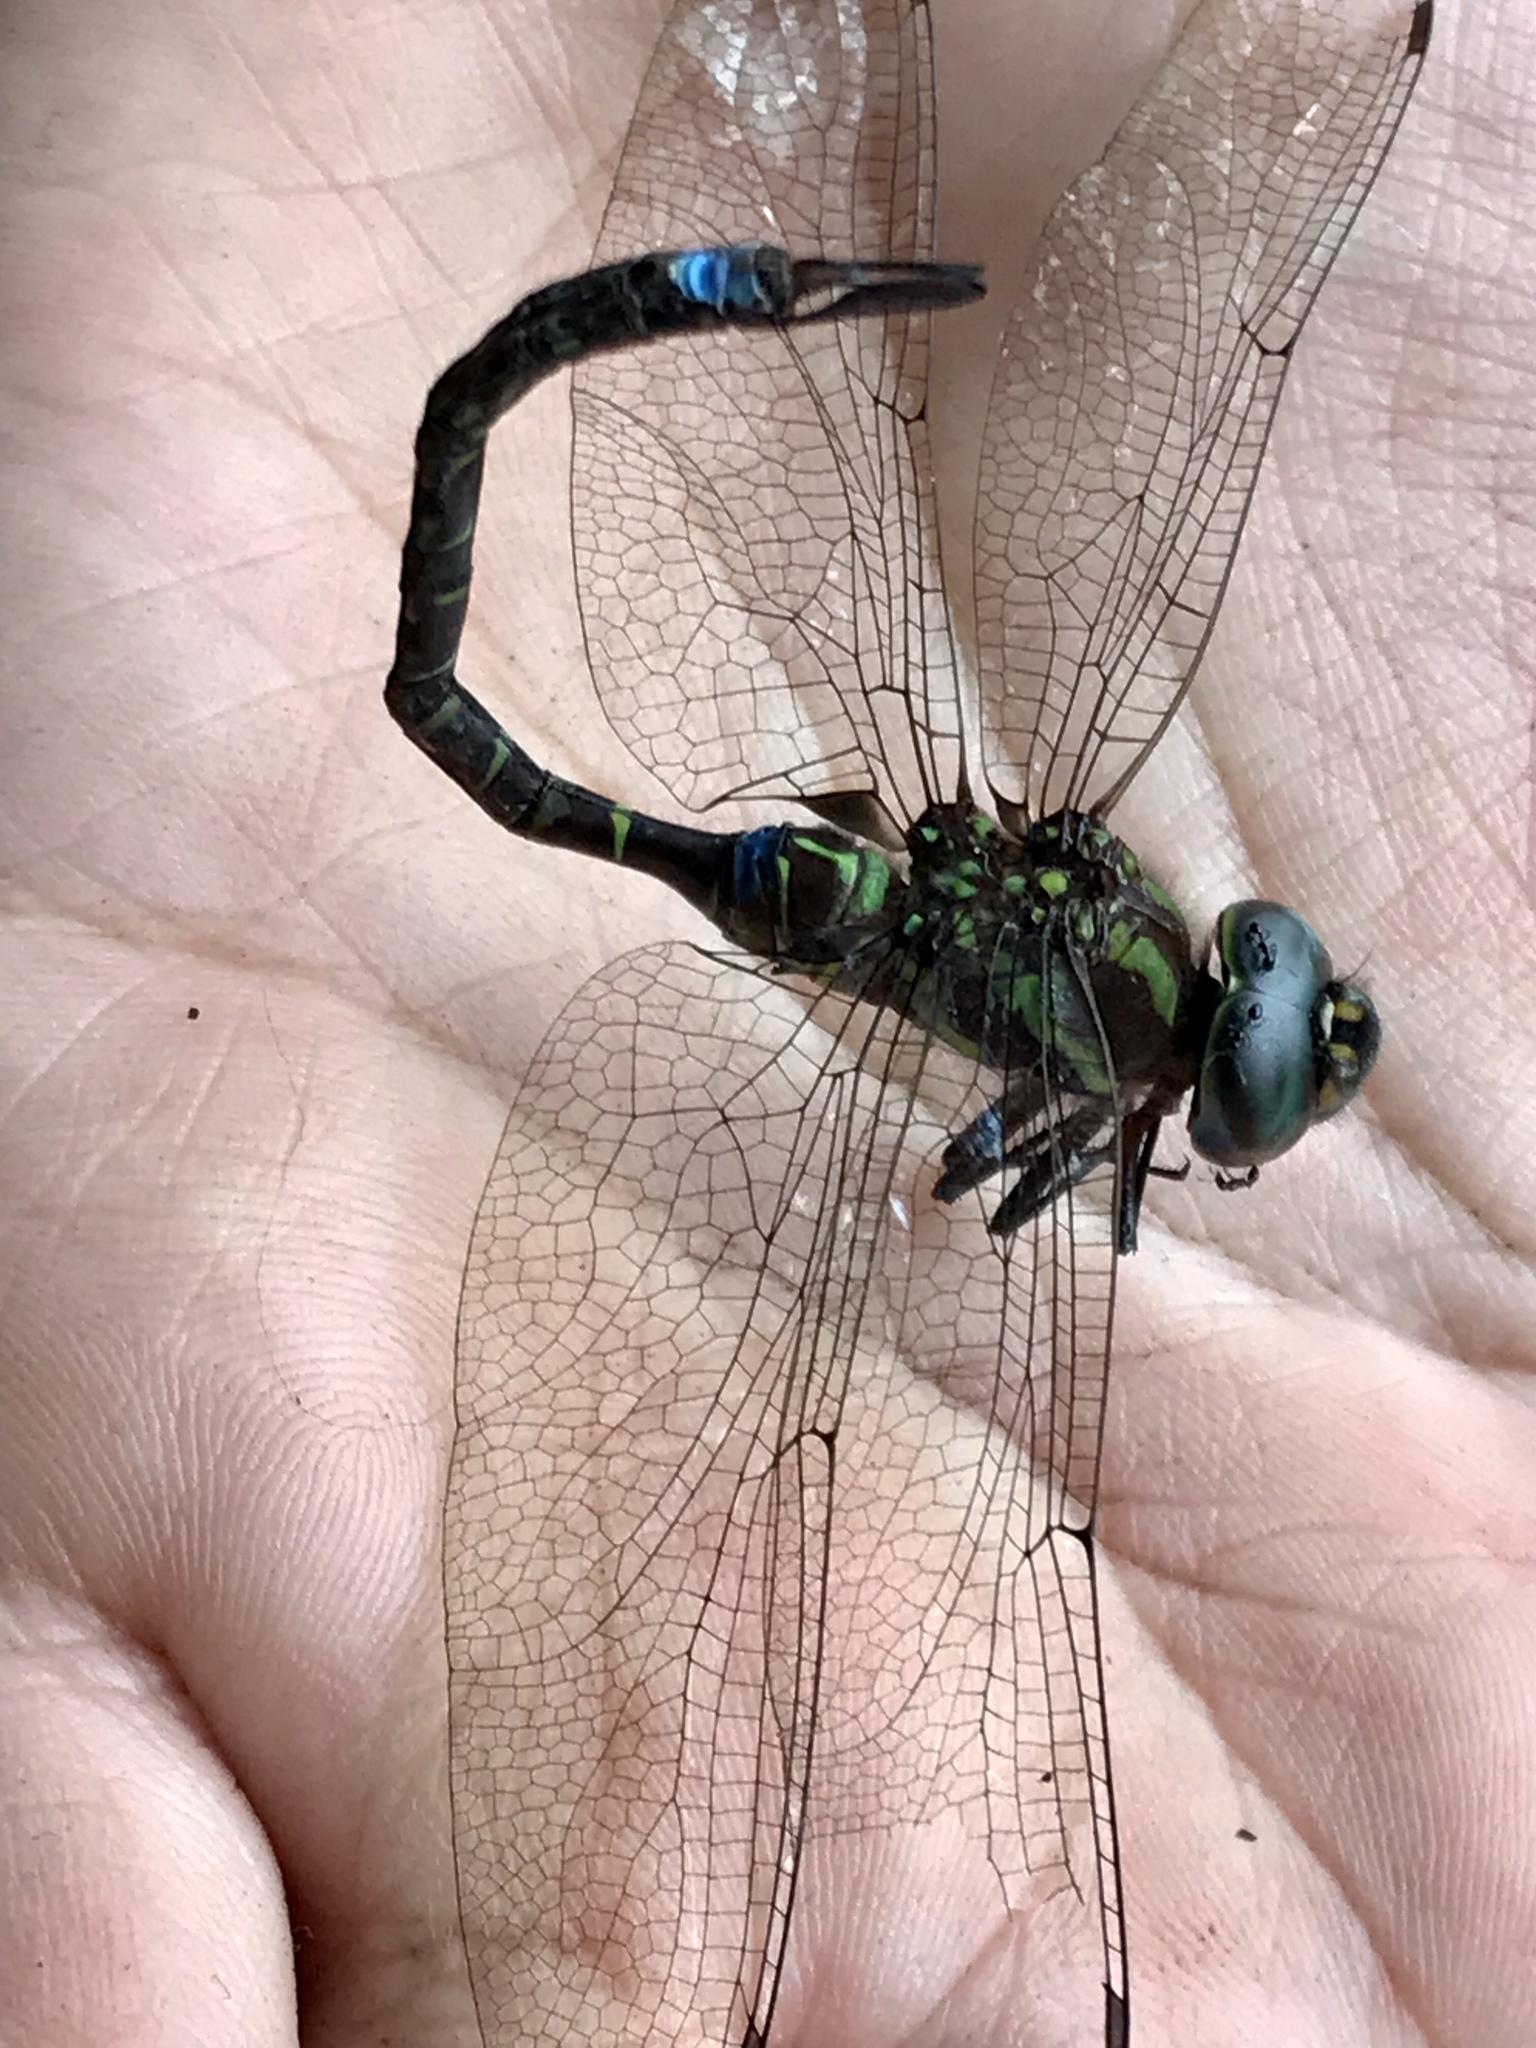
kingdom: Animalia
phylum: Arthropoda
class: Insecta
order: Odonata
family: Aeshnidae
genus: Rhionaeschna
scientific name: Rhionaeschna psilus
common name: Turquoise-tipped darner
